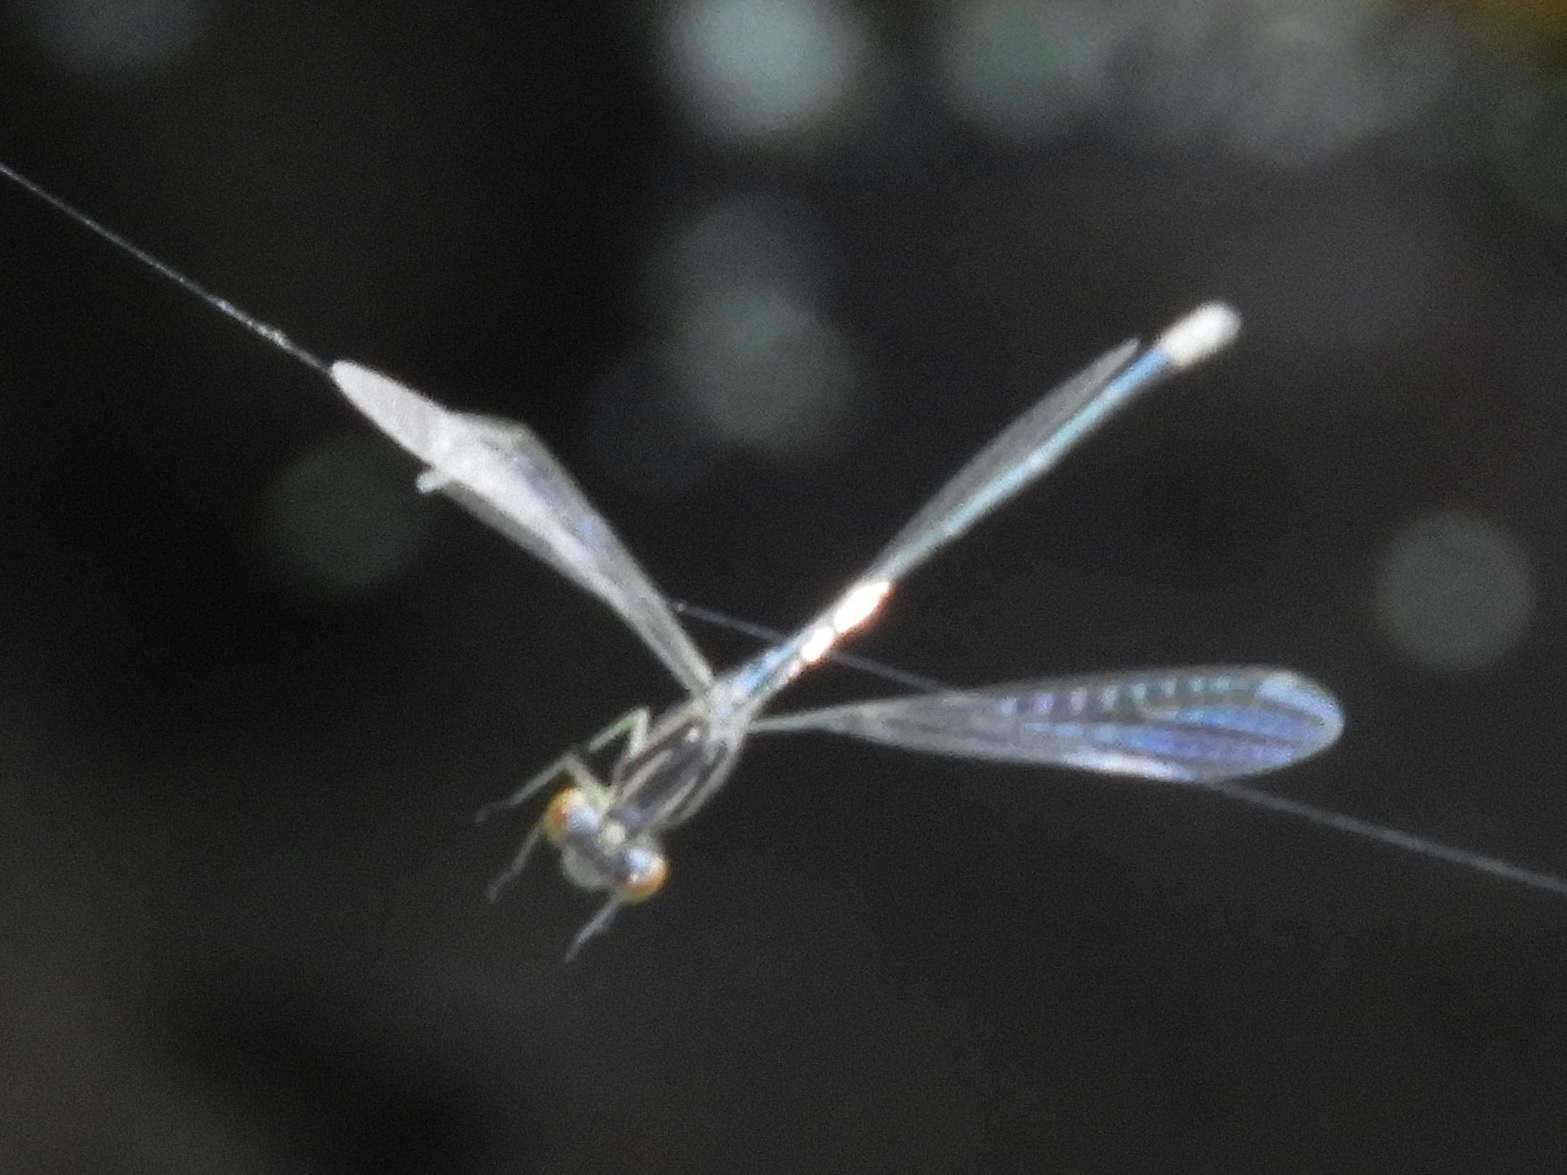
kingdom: Animalia
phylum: Arthropoda
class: Insecta
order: Odonata
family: Coenagrionidae
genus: Ischnura
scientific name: Ischnura verticalis
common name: Eastern forktail
